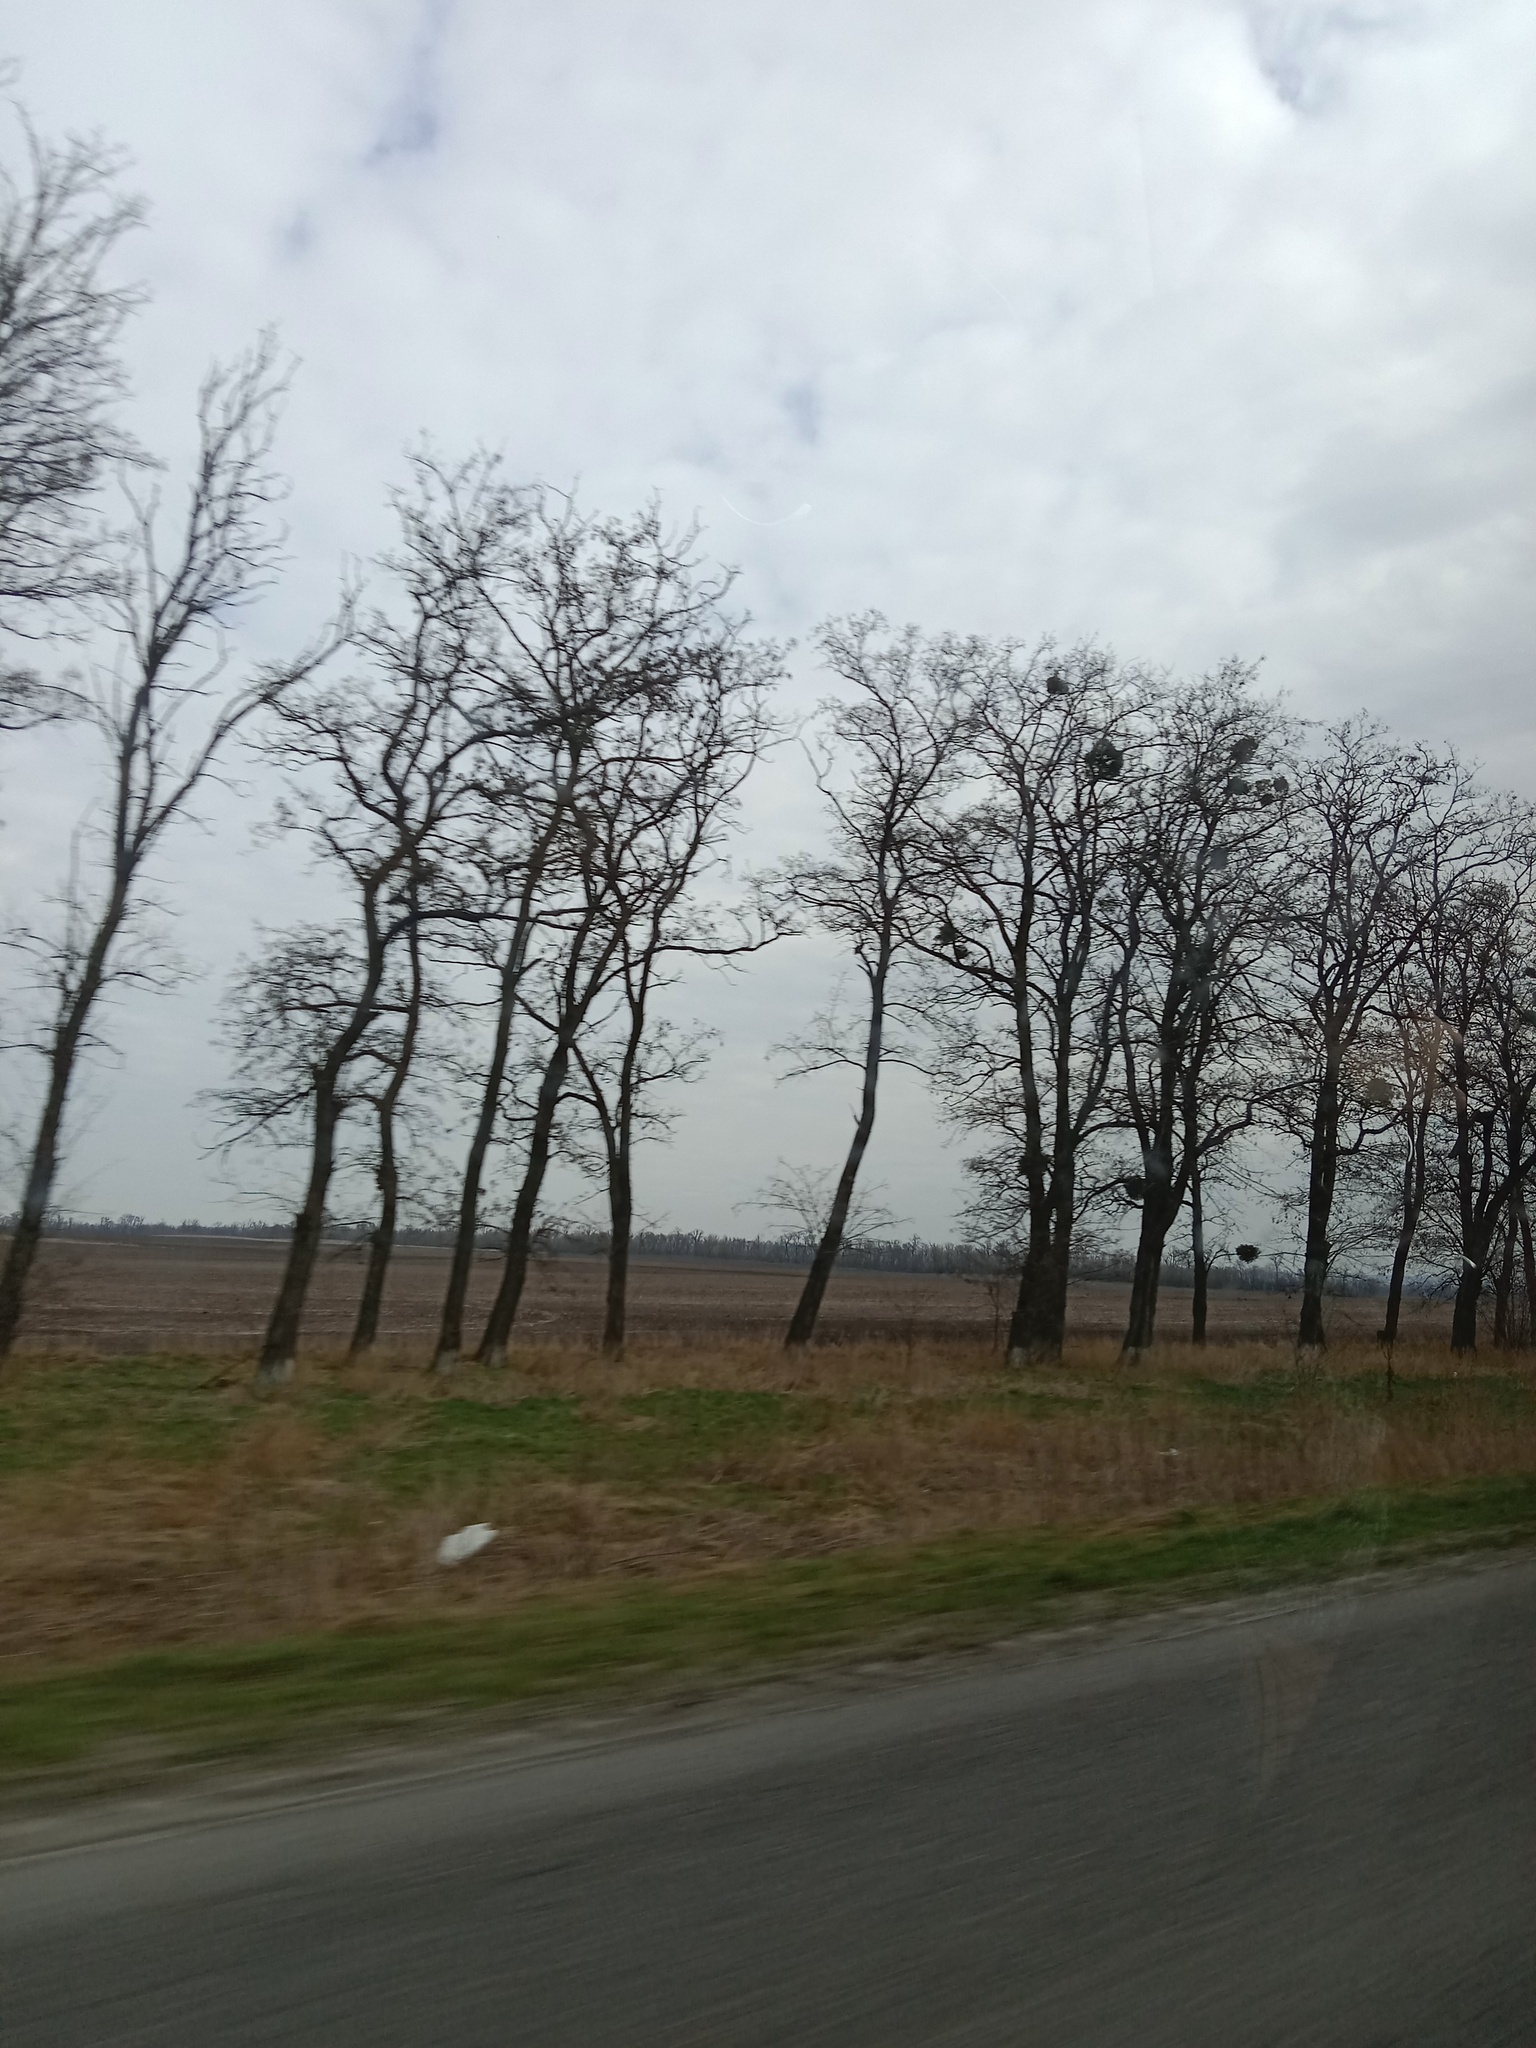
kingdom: Plantae
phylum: Tracheophyta
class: Magnoliopsida
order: Santalales
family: Viscaceae
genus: Viscum
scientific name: Viscum album
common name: Mistletoe
